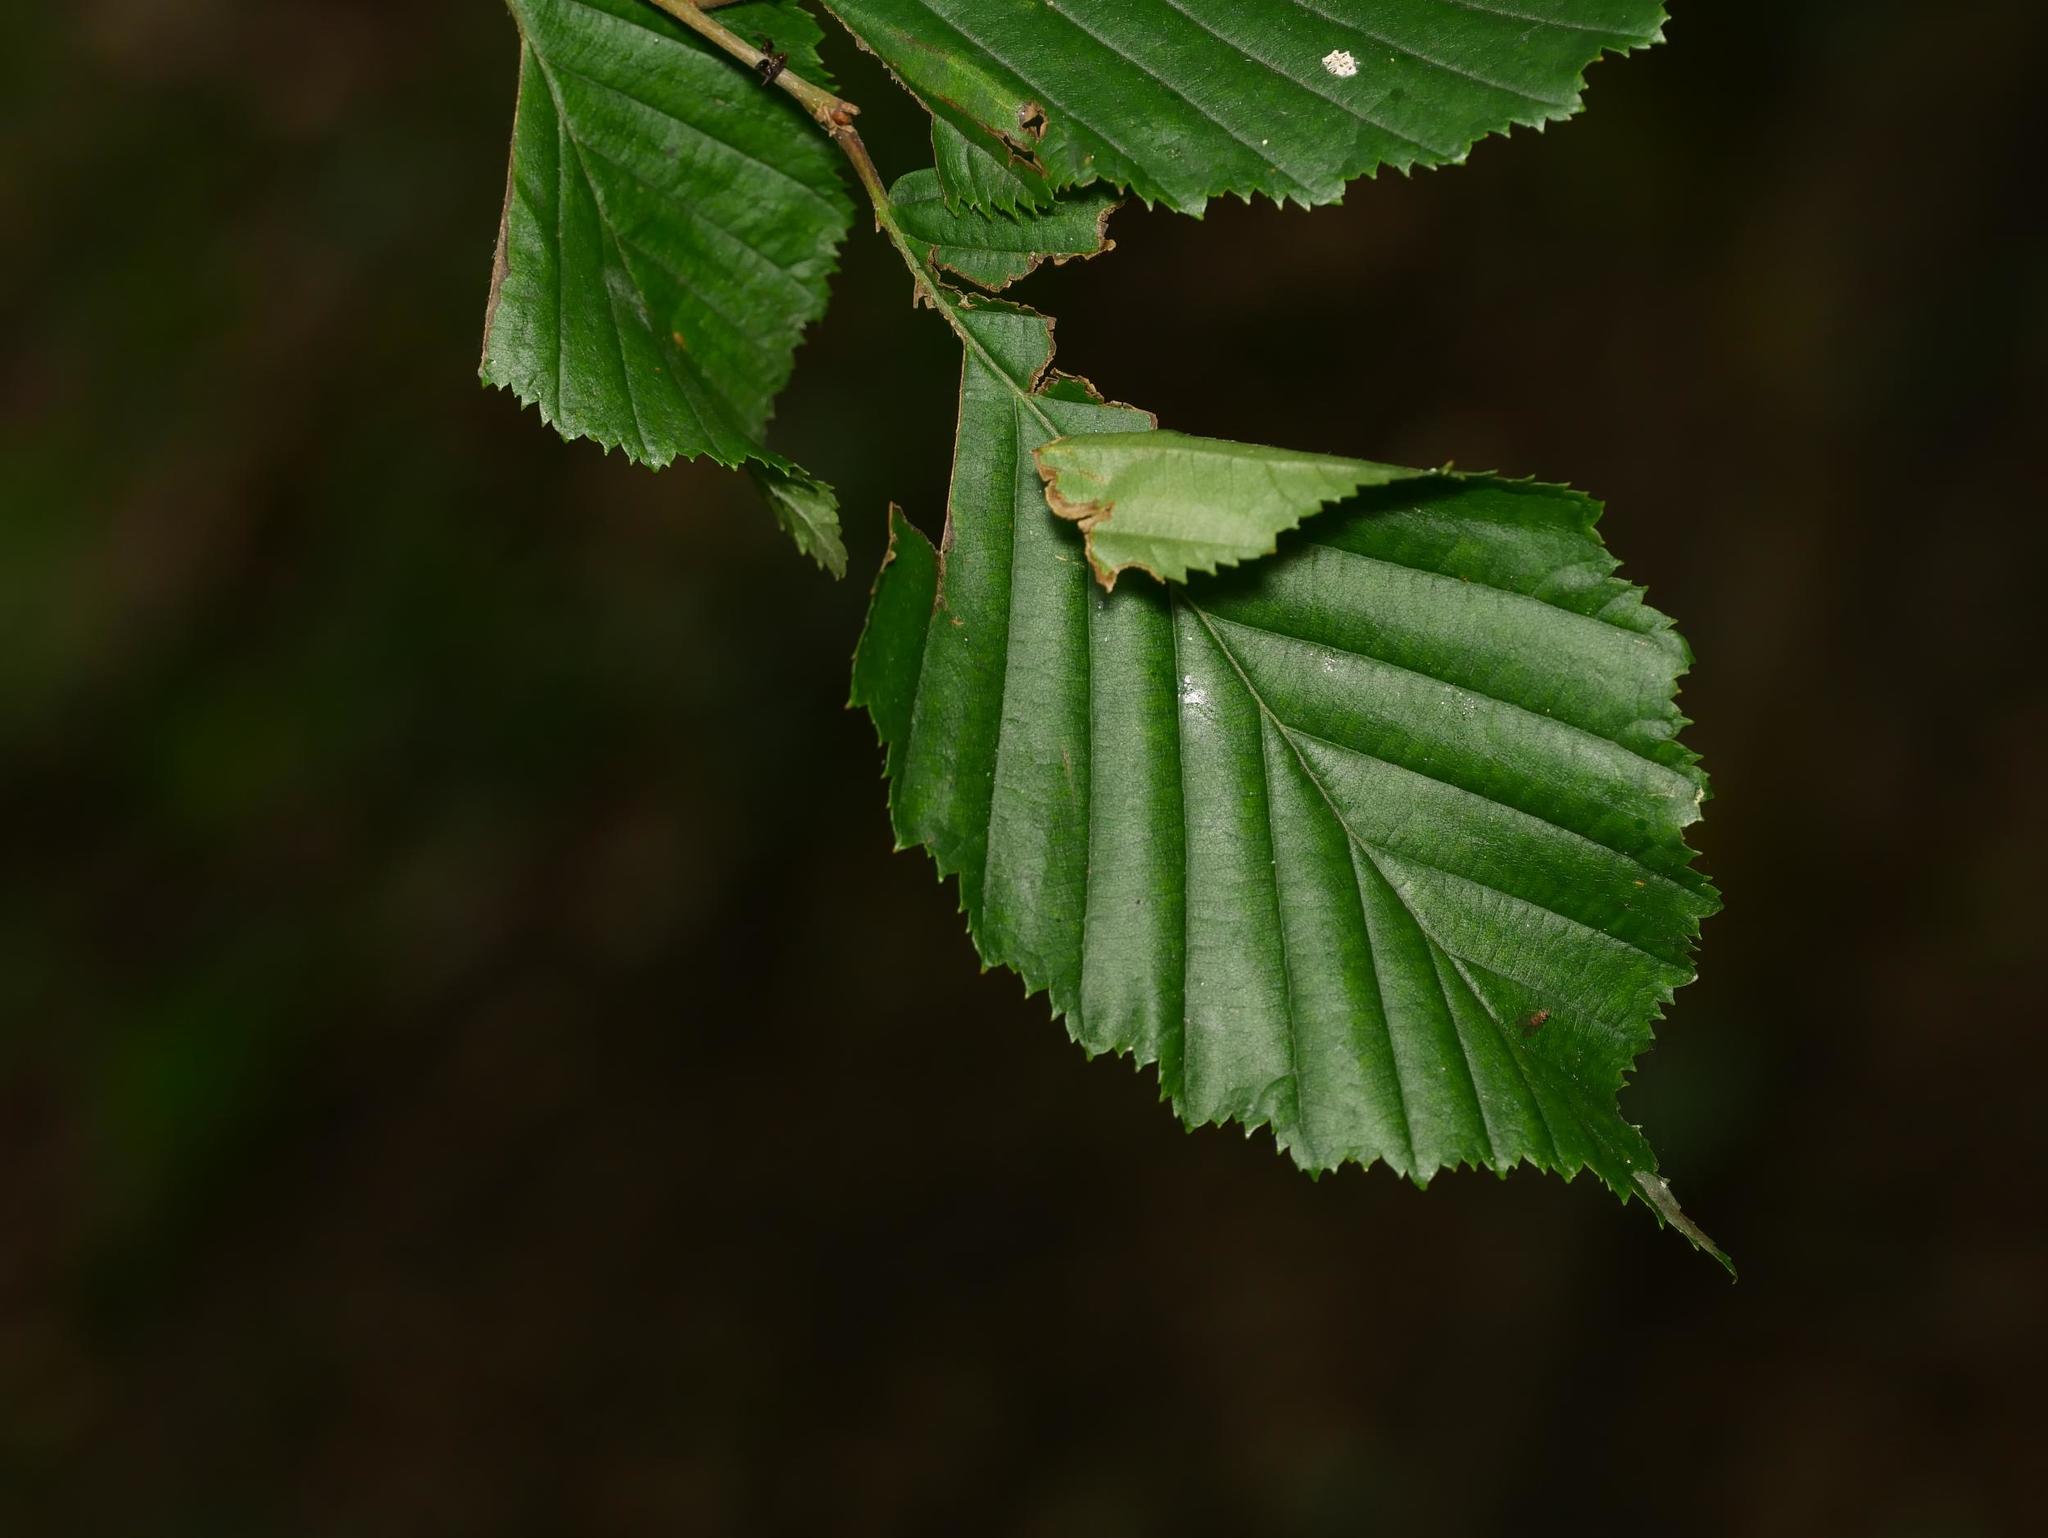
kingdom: Plantae
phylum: Tracheophyta
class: Magnoliopsida
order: Fagales
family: Betulaceae
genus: Carpinus
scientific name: Carpinus betulus
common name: Hornbeam
